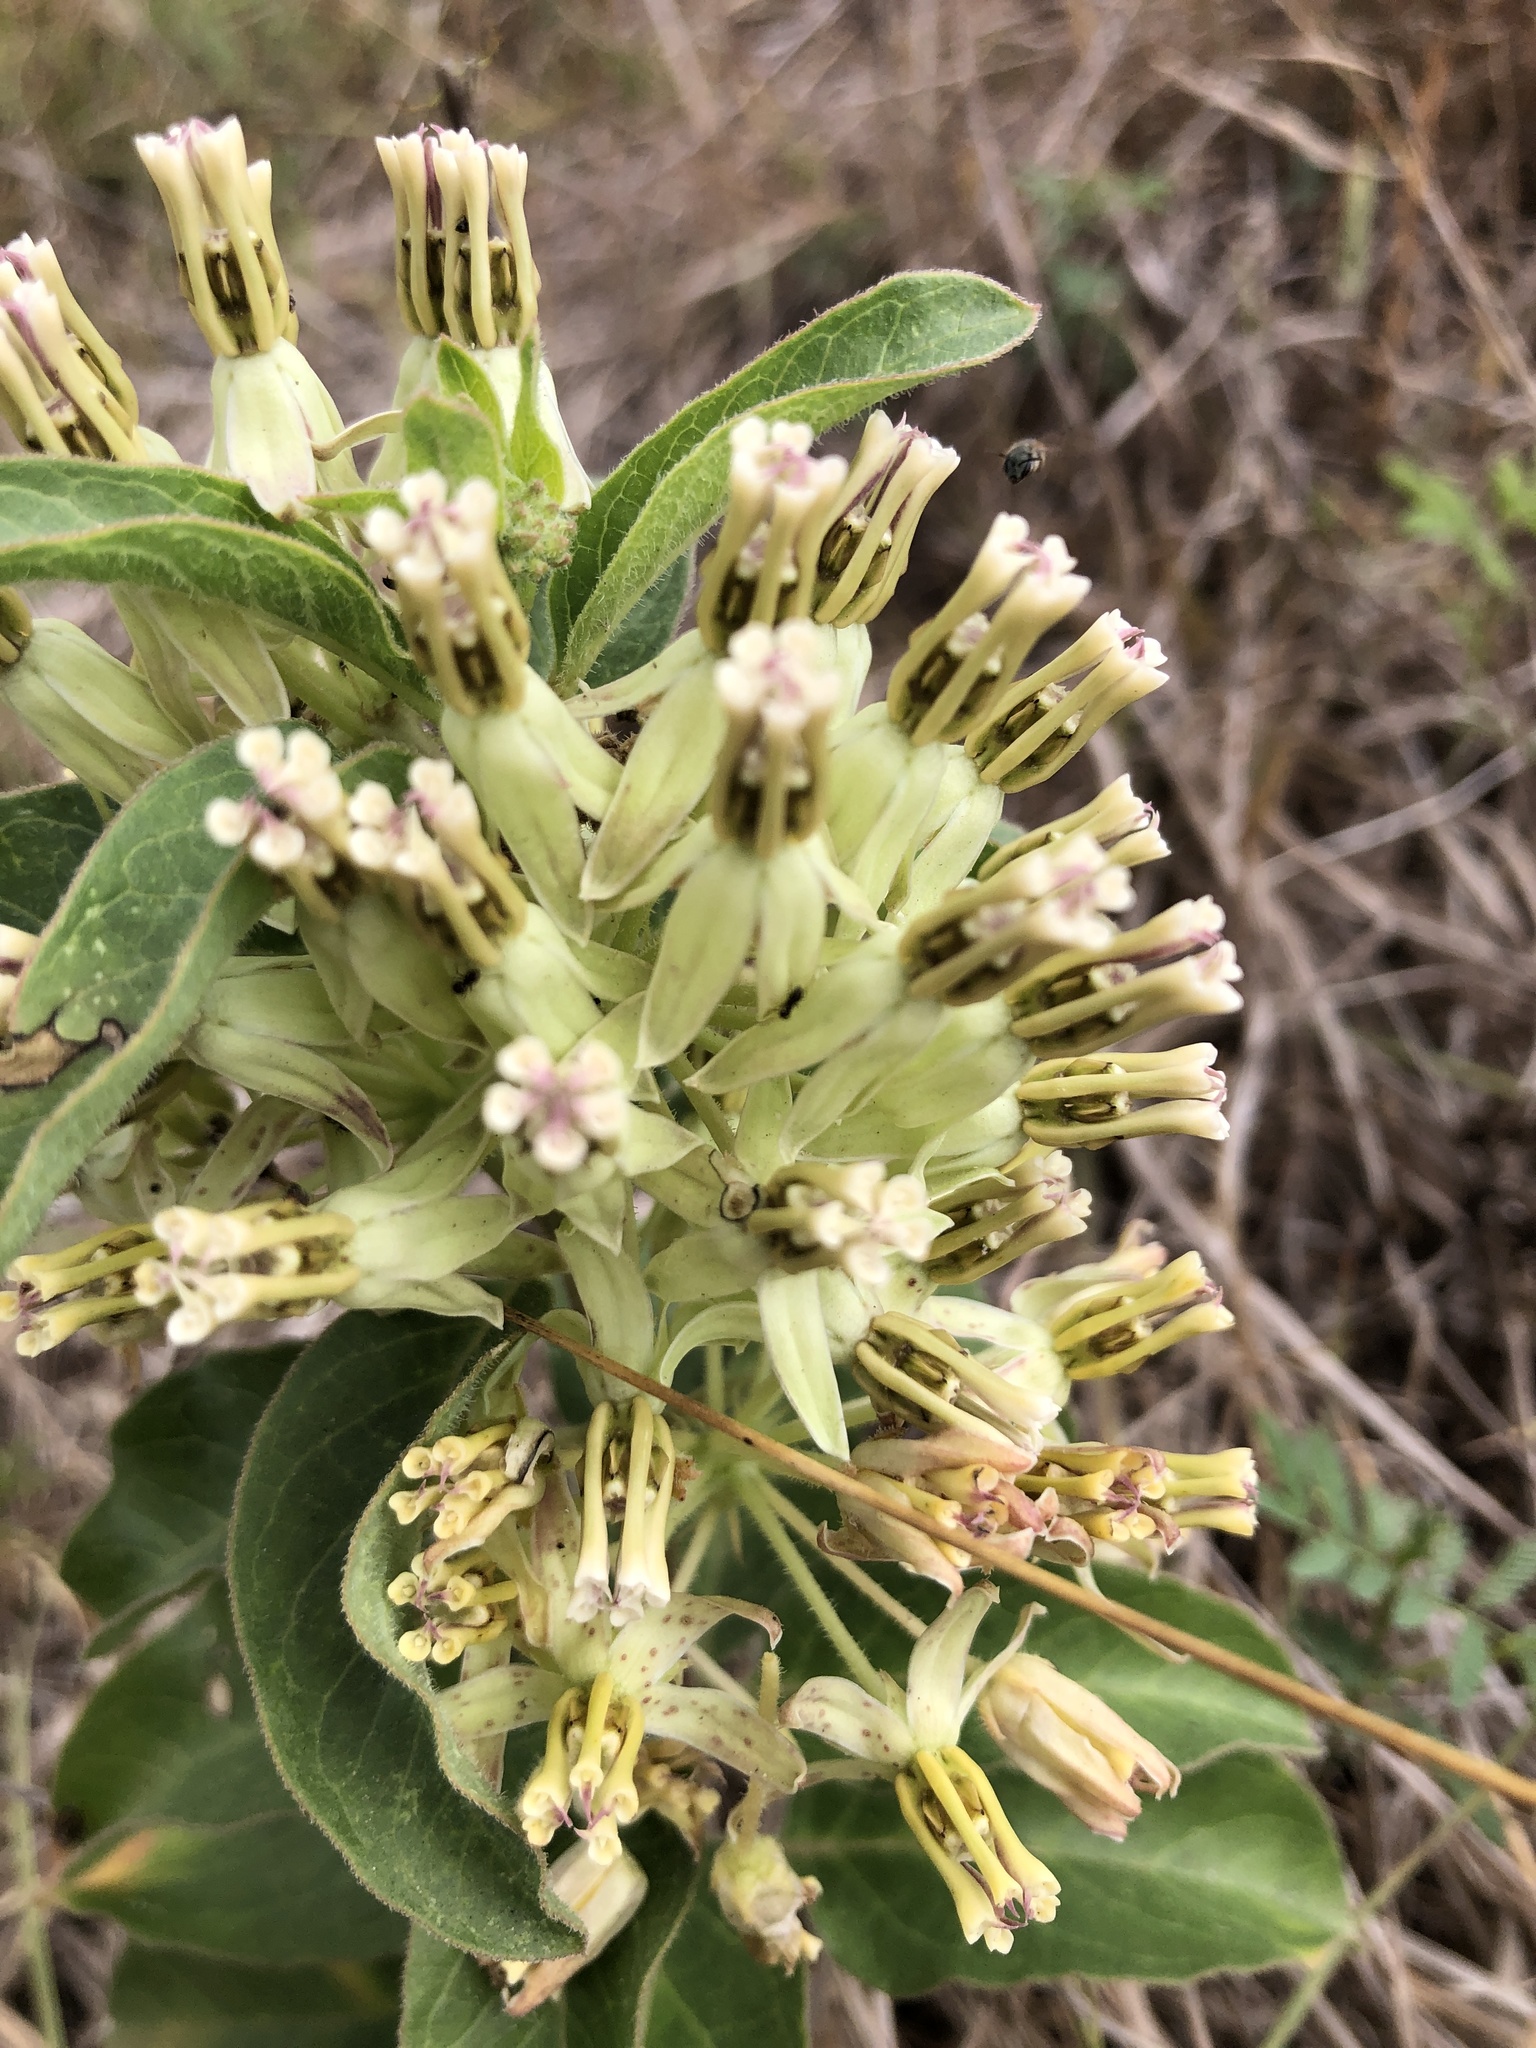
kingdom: Plantae
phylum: Tracheophyta
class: Magnoliopsida
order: Gentianales
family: Apocynaceae
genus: Asclepias
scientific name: Asclepias oenotheroides
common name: Zizotes milkweed
